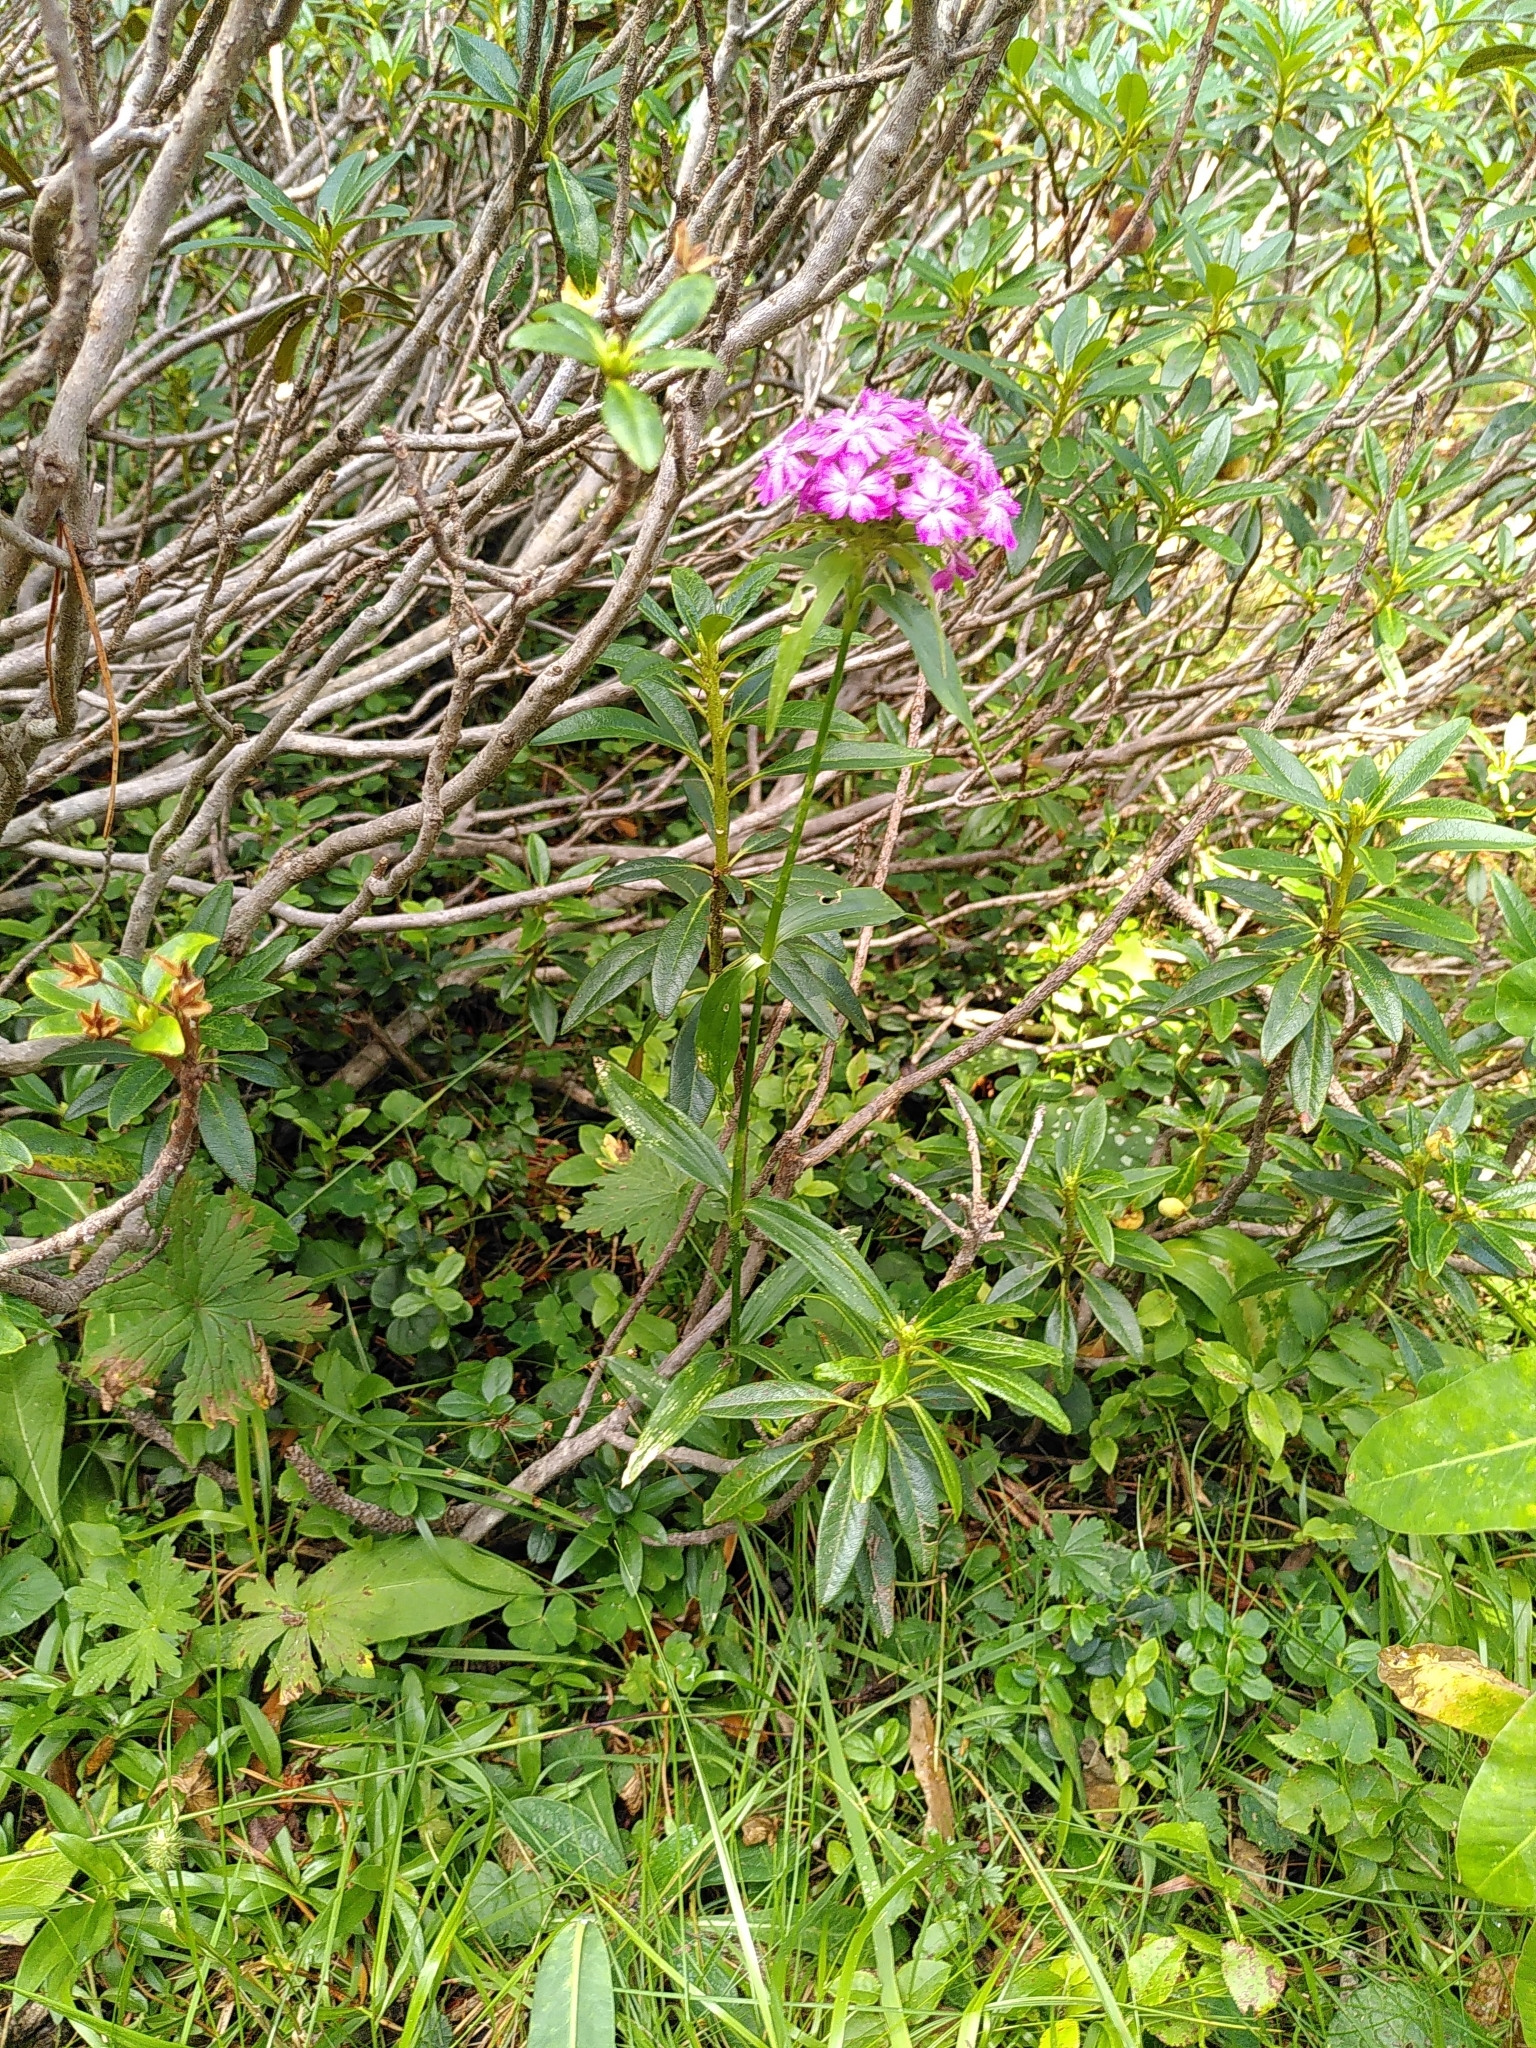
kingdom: Plantae
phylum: Tracheophyta
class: Magnoliopsida
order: Caryophyllales
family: Caryophyllaceae
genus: Dianthus
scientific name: Dianthus barbatus
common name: Sweet-william
